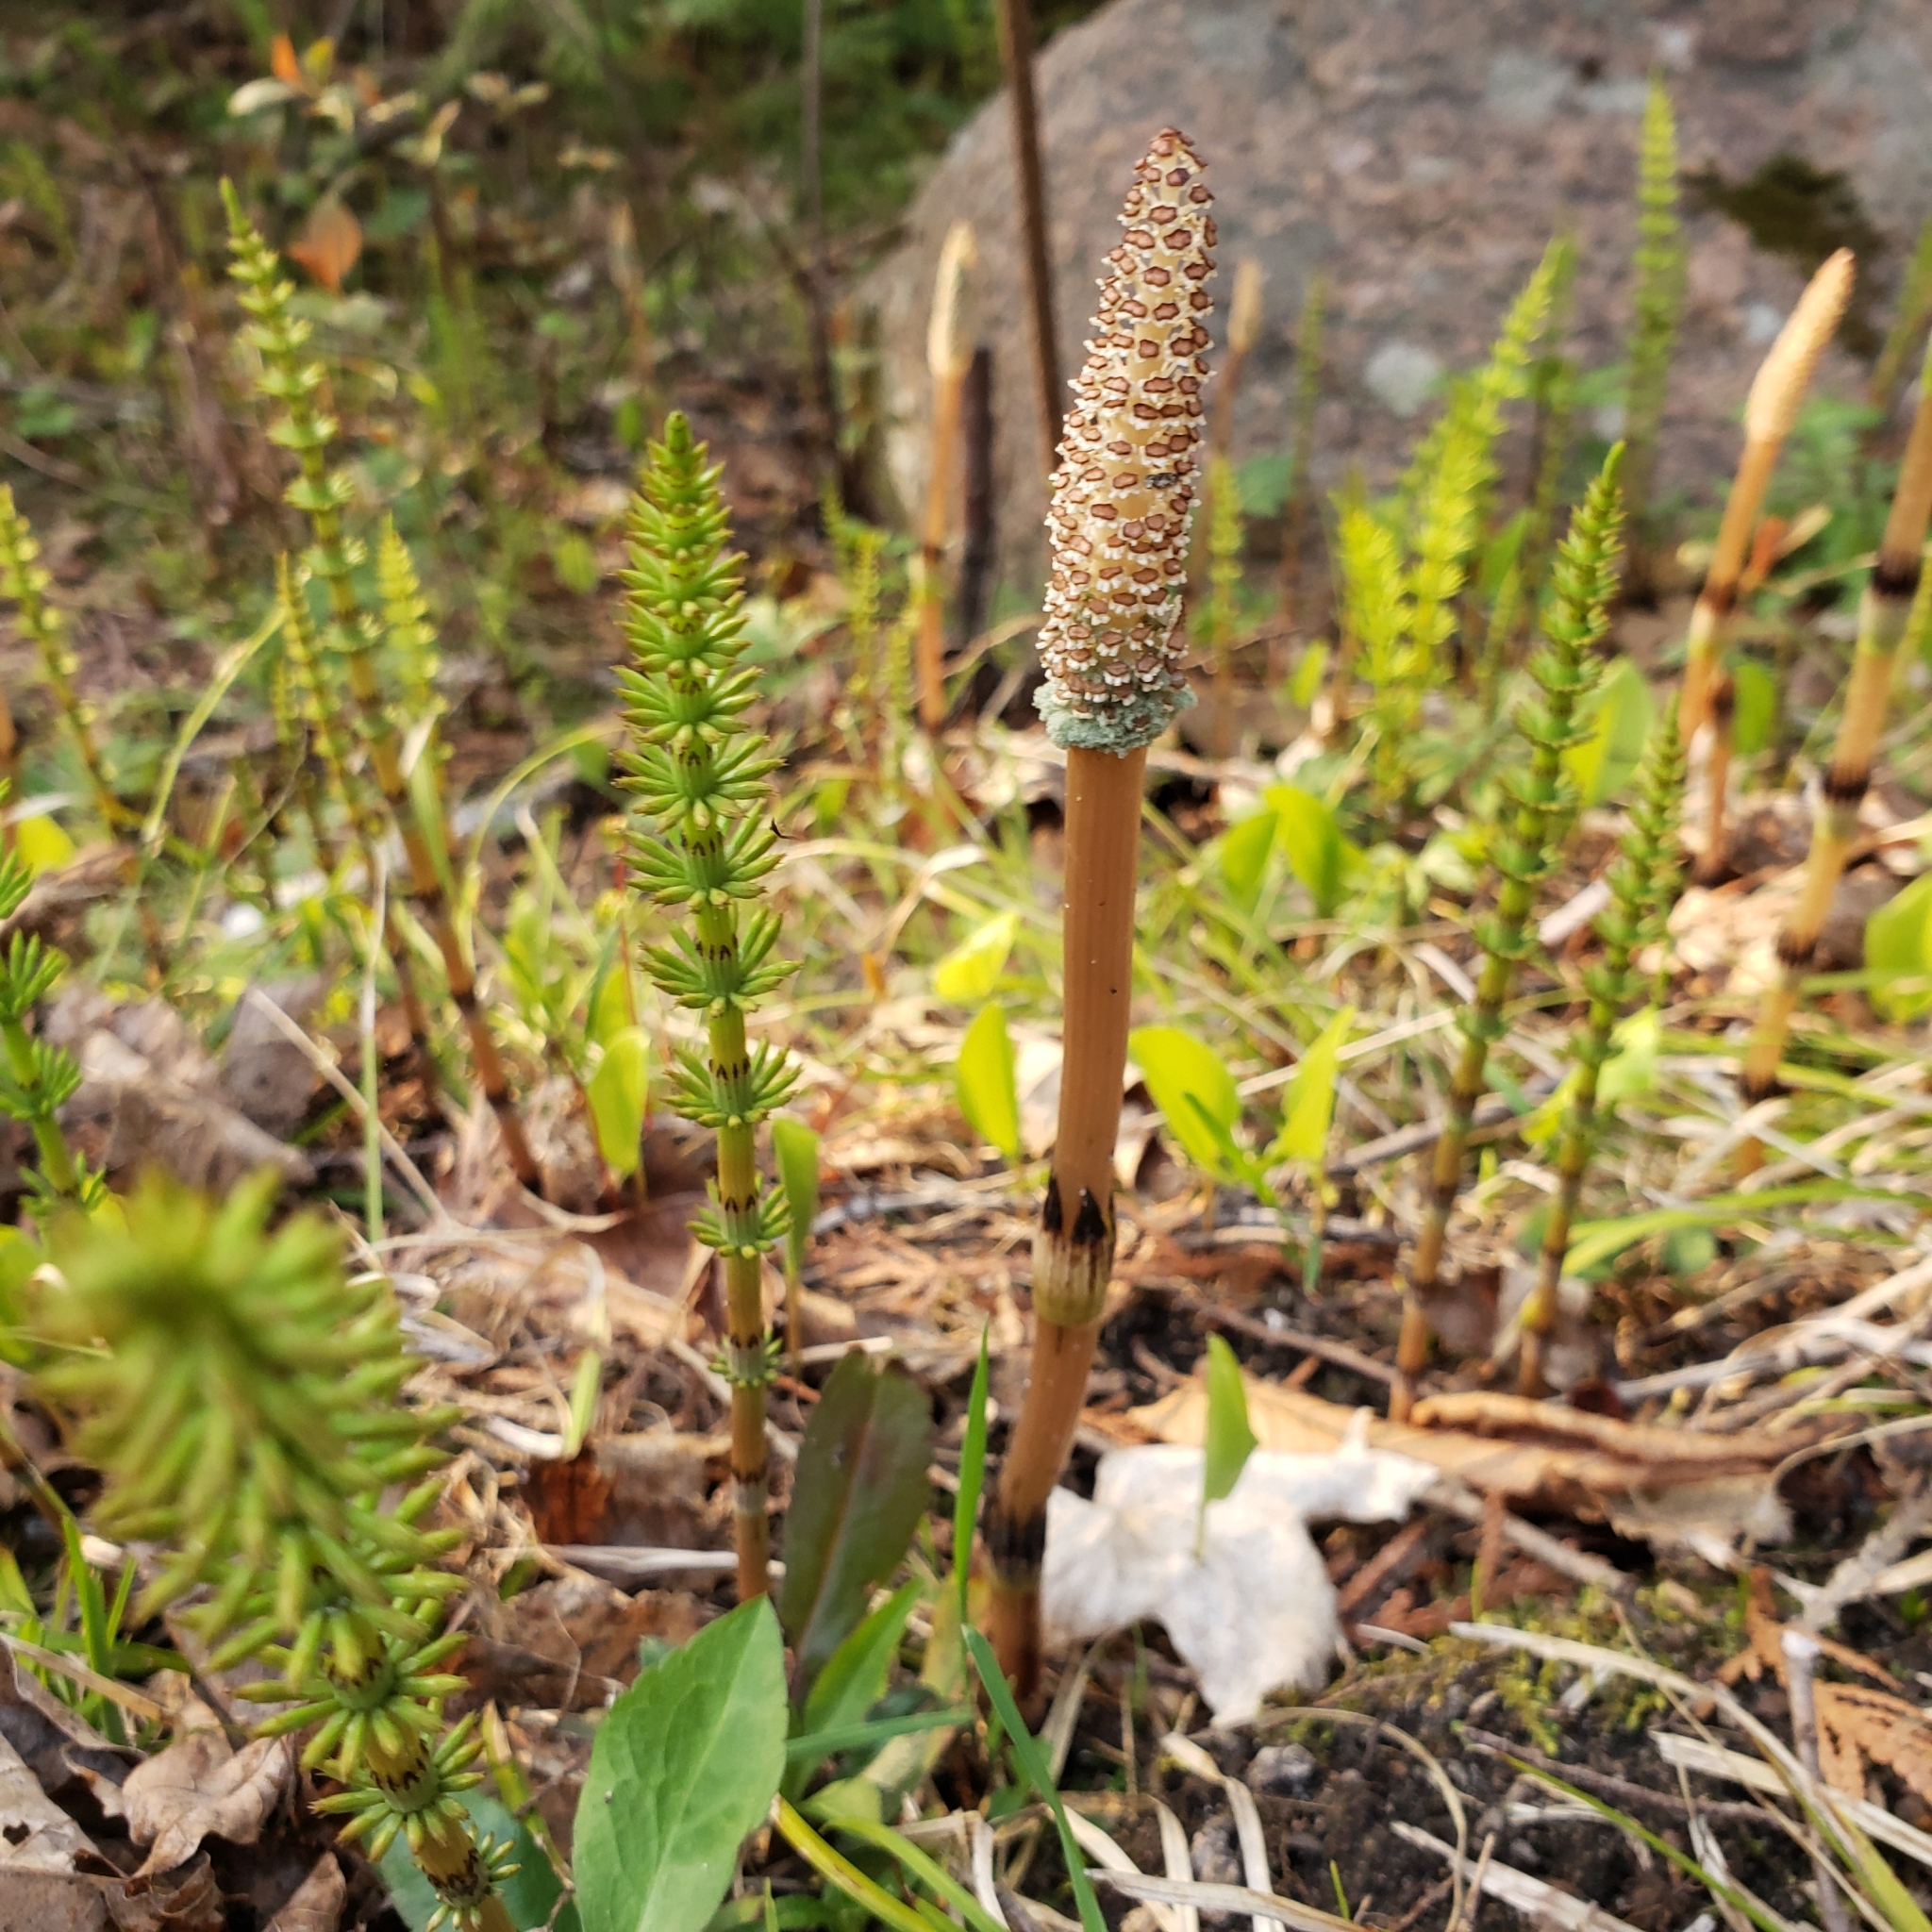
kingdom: Plantae
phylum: Tracheophyta
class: Polypodiopsida
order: Equisetales
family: Equisetaceae
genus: Equisetum
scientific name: Equisetum arvense
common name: Field horsetail
